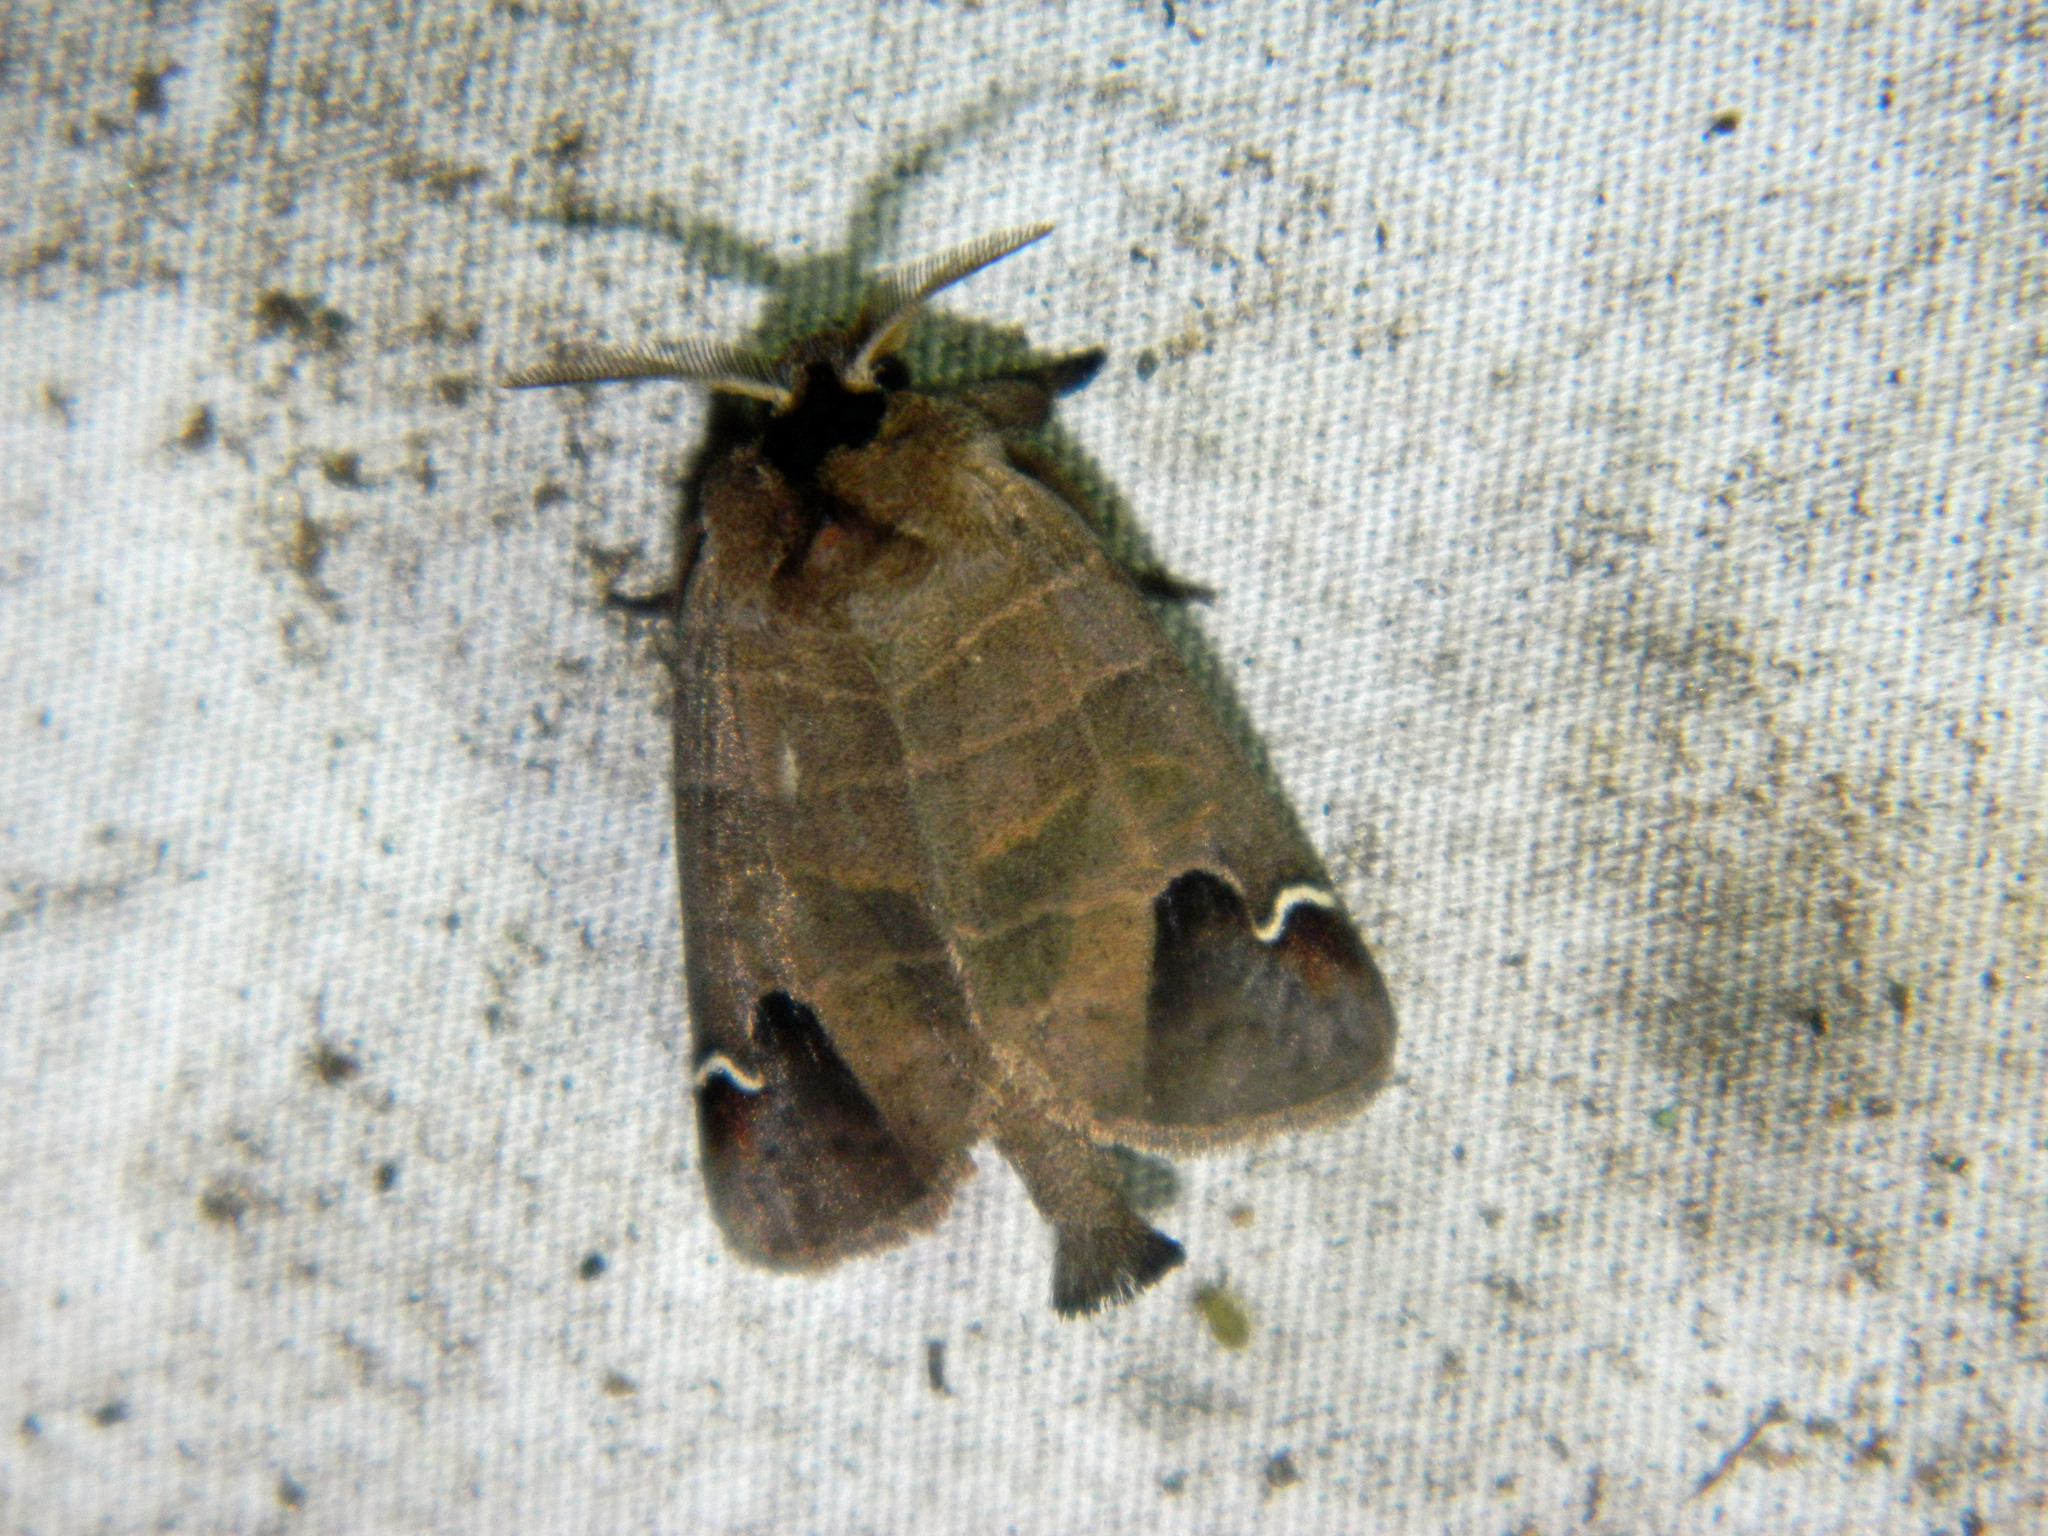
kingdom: Animalia
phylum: Arthropoda
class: Insecta
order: Lepidoptera
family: Notodontidae
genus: Clostera
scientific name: Clostera albosigma
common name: Sigmoid prominent
